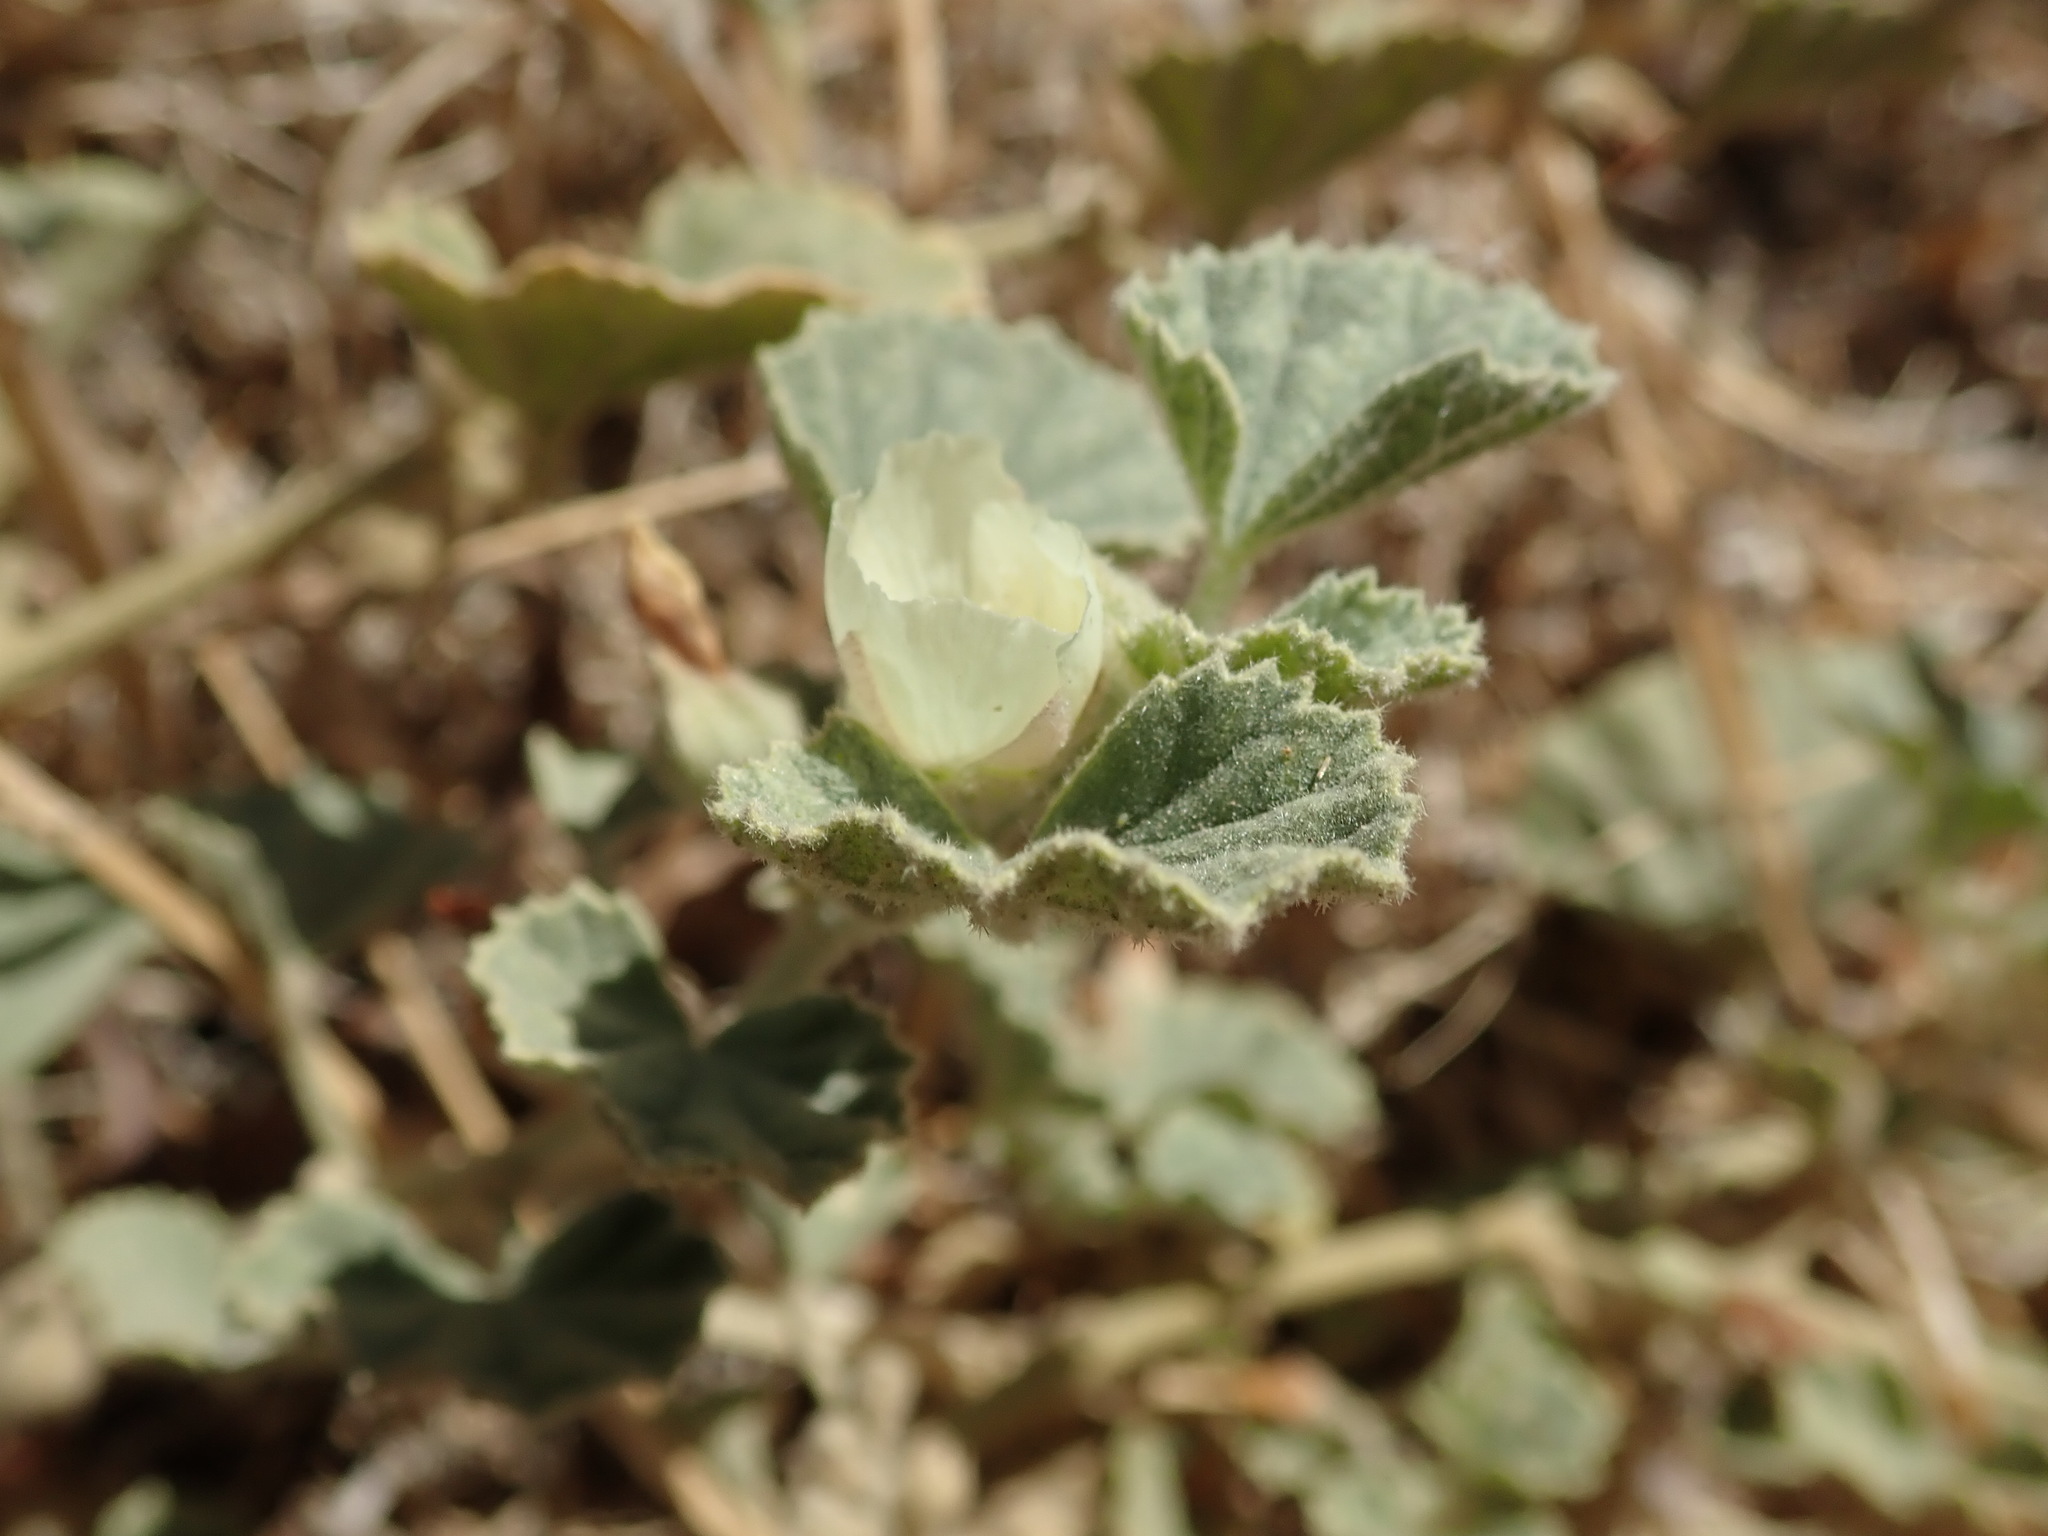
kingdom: Plantae
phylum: Tracheophyta
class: Magnoliopsida
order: Malvales
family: Malvaceae
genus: Malvella
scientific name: Malvella leprosa
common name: Alkali-mallow
